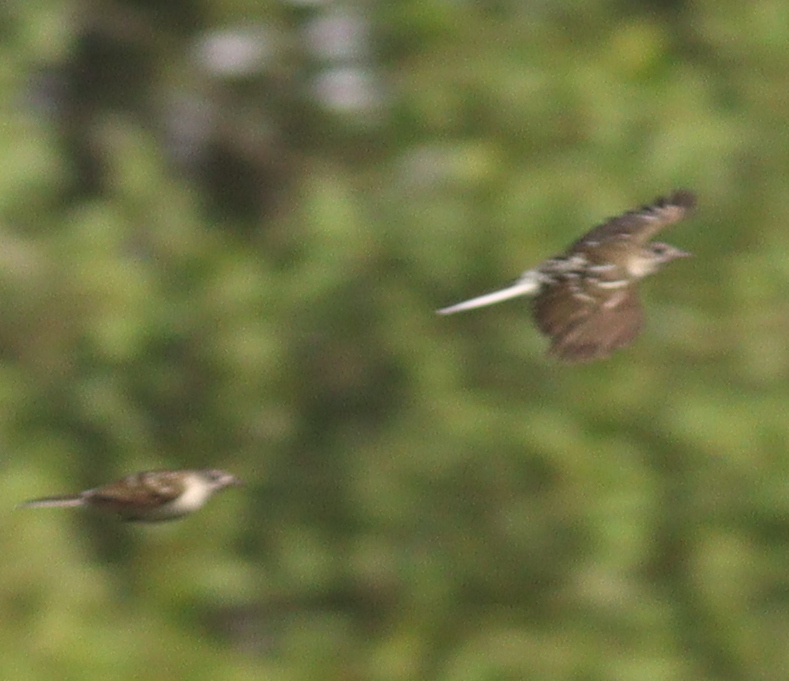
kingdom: Animalia
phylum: Chordata
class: Aves
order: Passeriformes
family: Pycnonotidae
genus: Ixonotus
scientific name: Ixonotus guttatus
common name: Spotted greenbul
